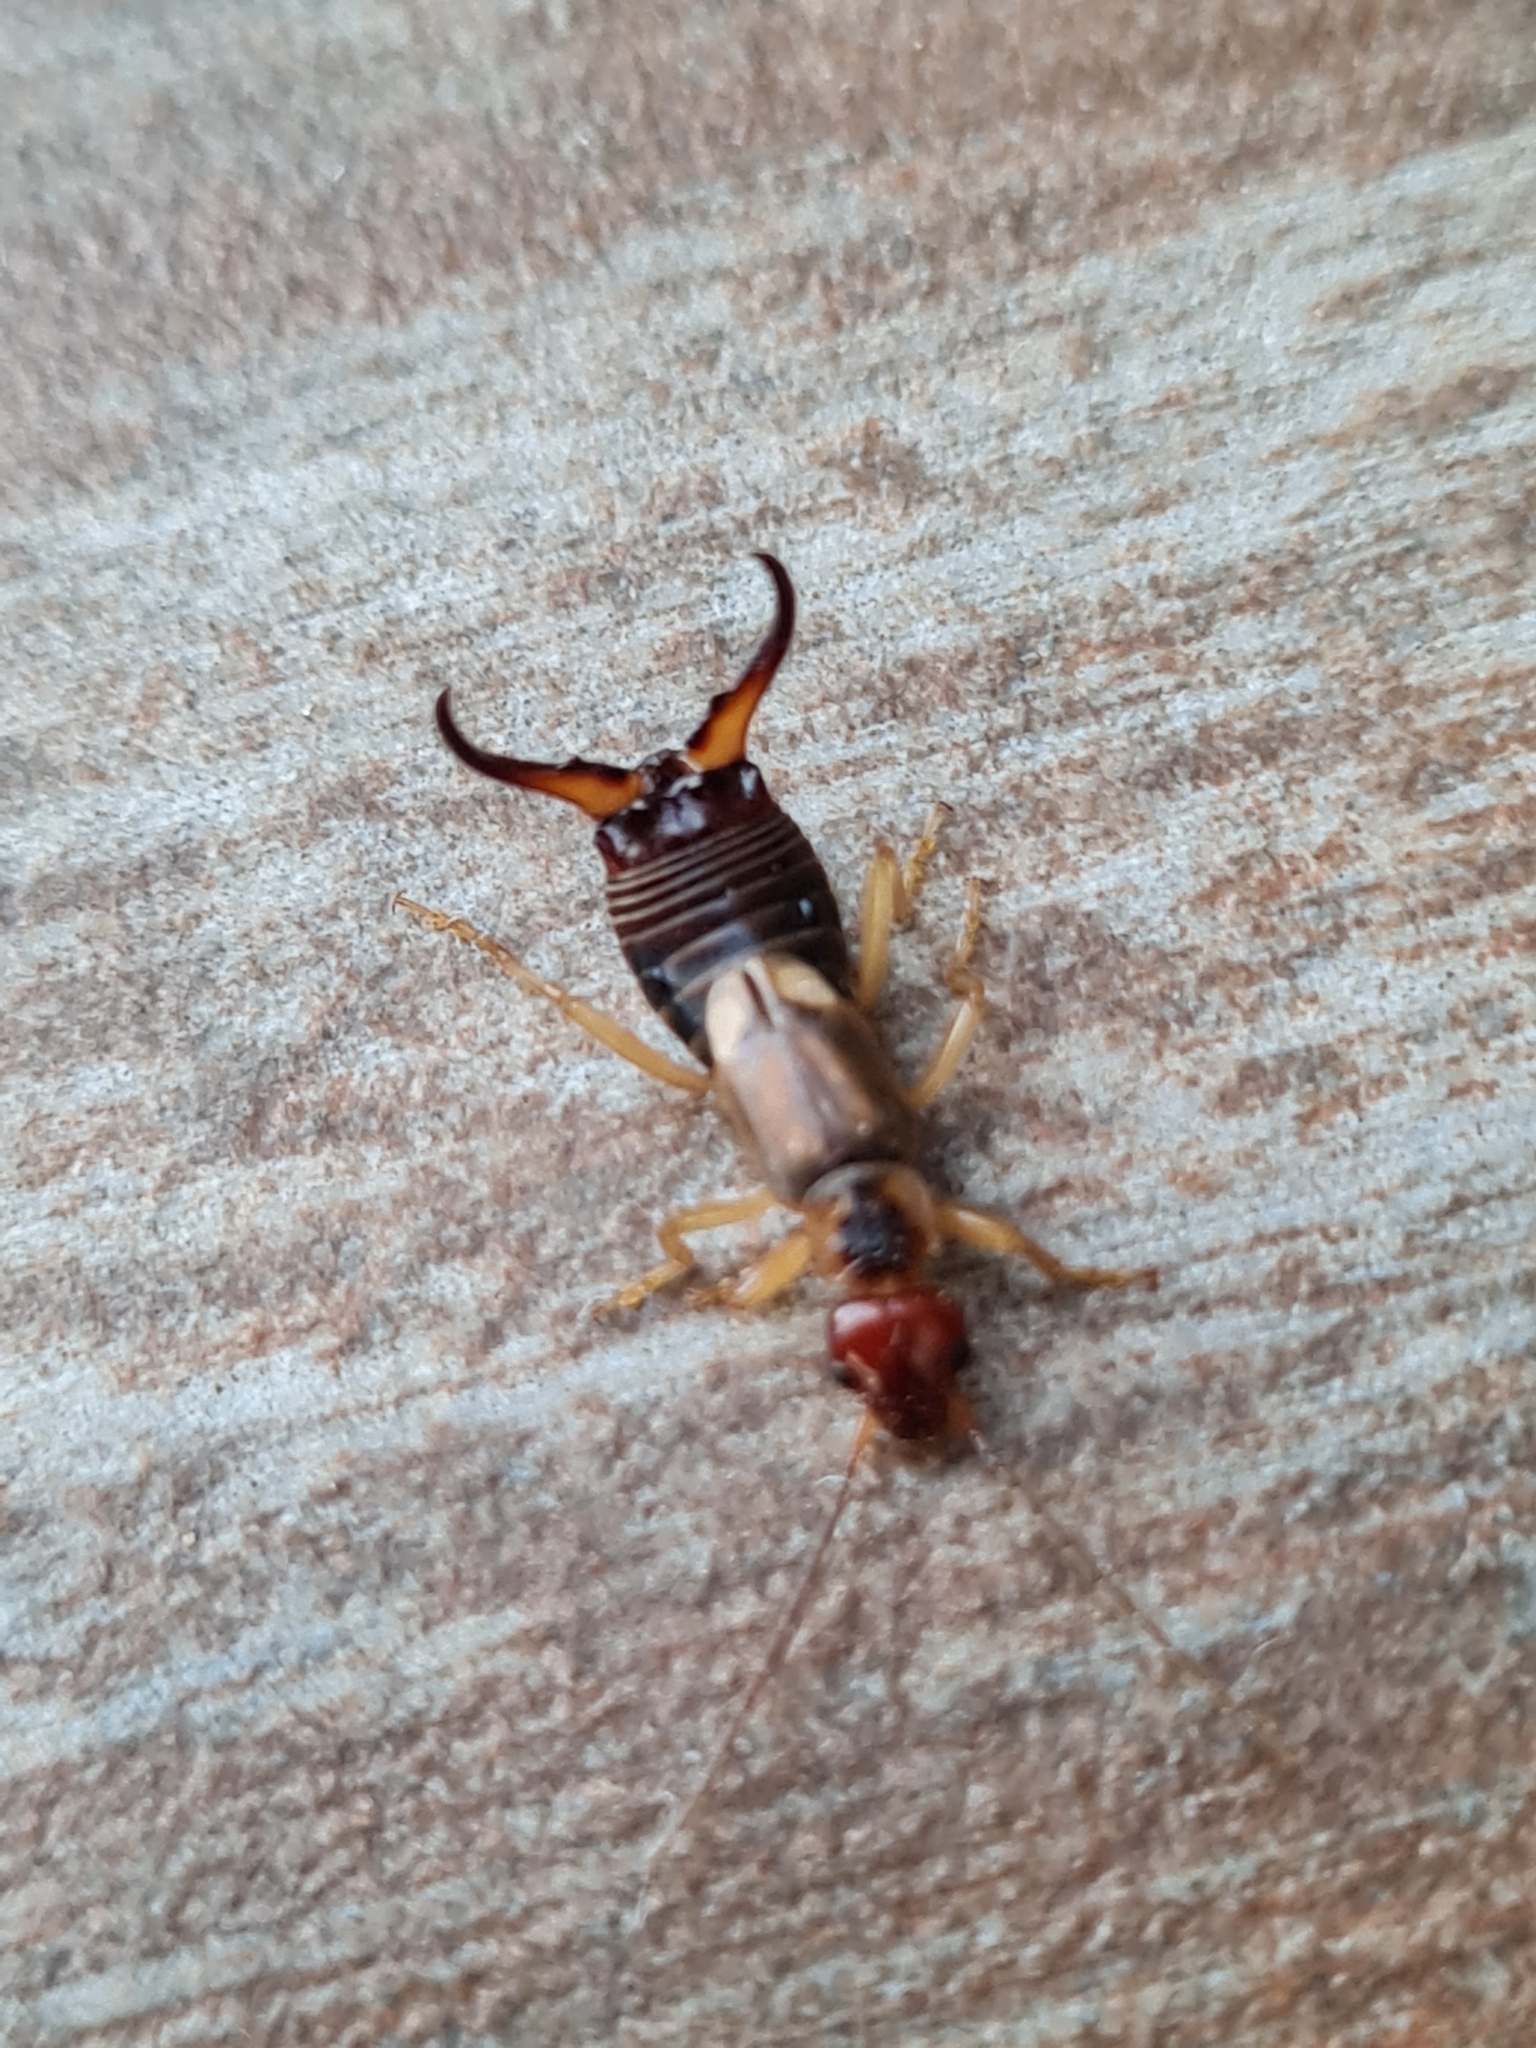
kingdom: Animalia
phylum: Arthropoda
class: Insecta
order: Dermaptera
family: Forficulidae
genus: Forficula
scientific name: Forficula
